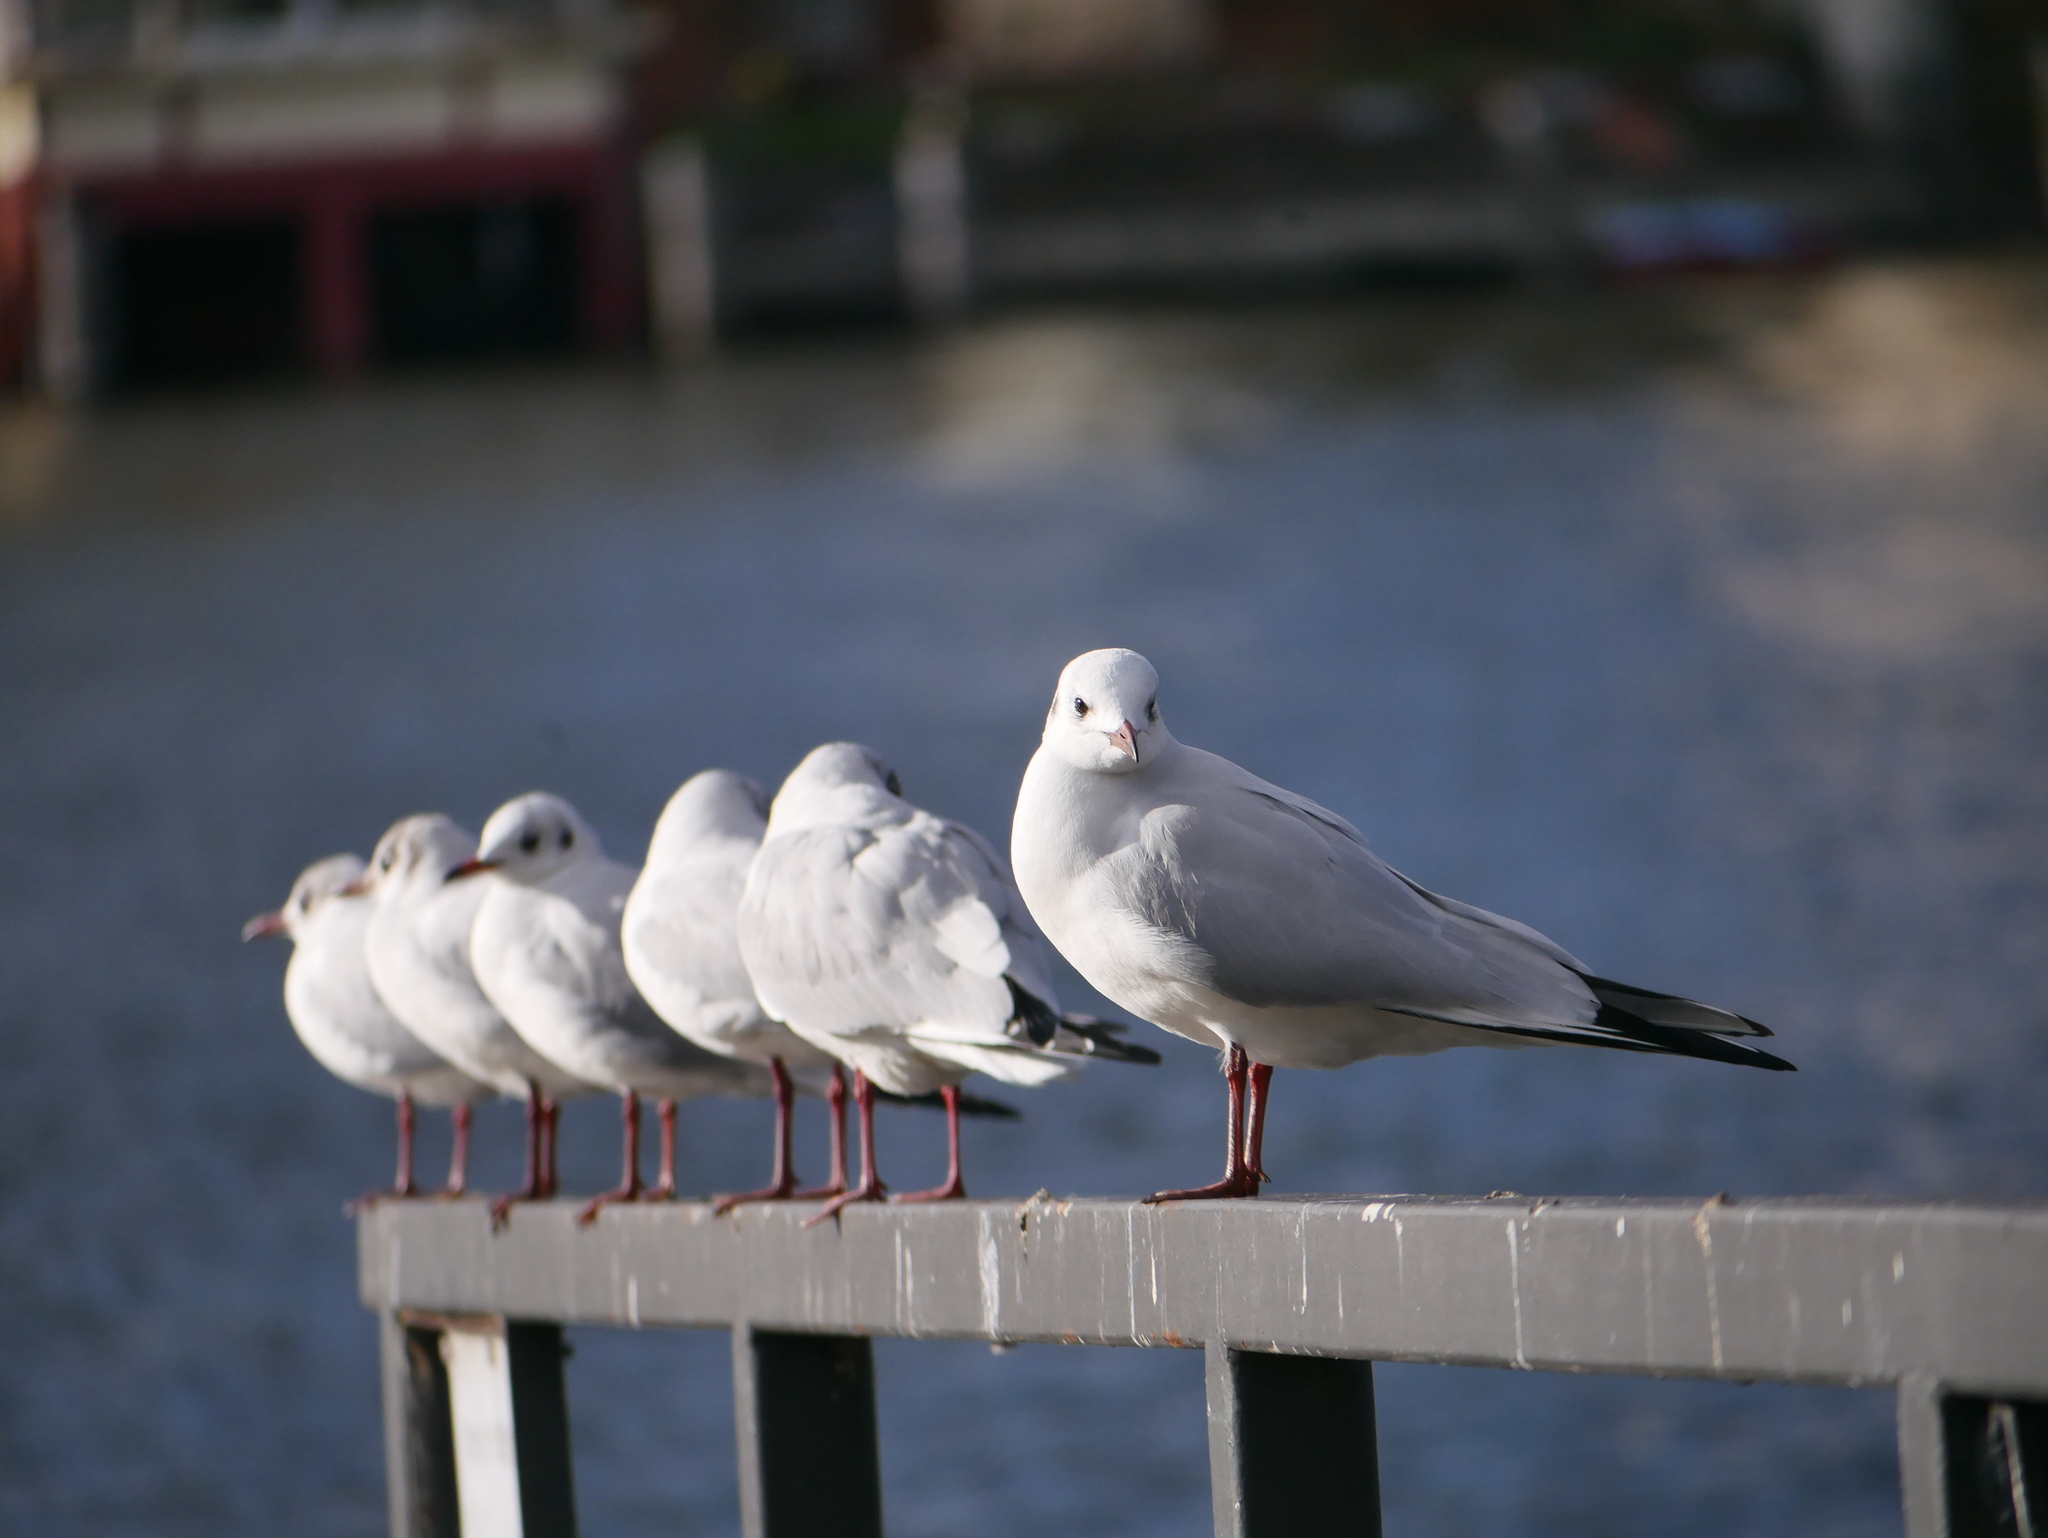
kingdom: Animalia
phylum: Chordata
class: Aves
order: Charadriiformes
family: Laridae
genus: Chroicocephalus
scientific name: Chroicocephalus ridibundus
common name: Black-headed gull
